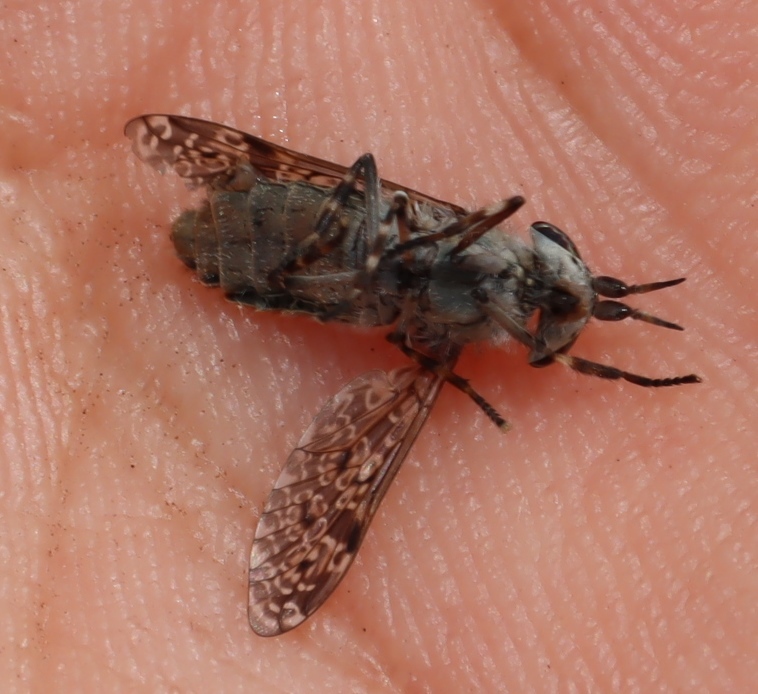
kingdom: Animalia
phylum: Arthropoda
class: Insecta
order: Diptera
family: Tabanidae
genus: Haematopota
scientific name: Haematopota
